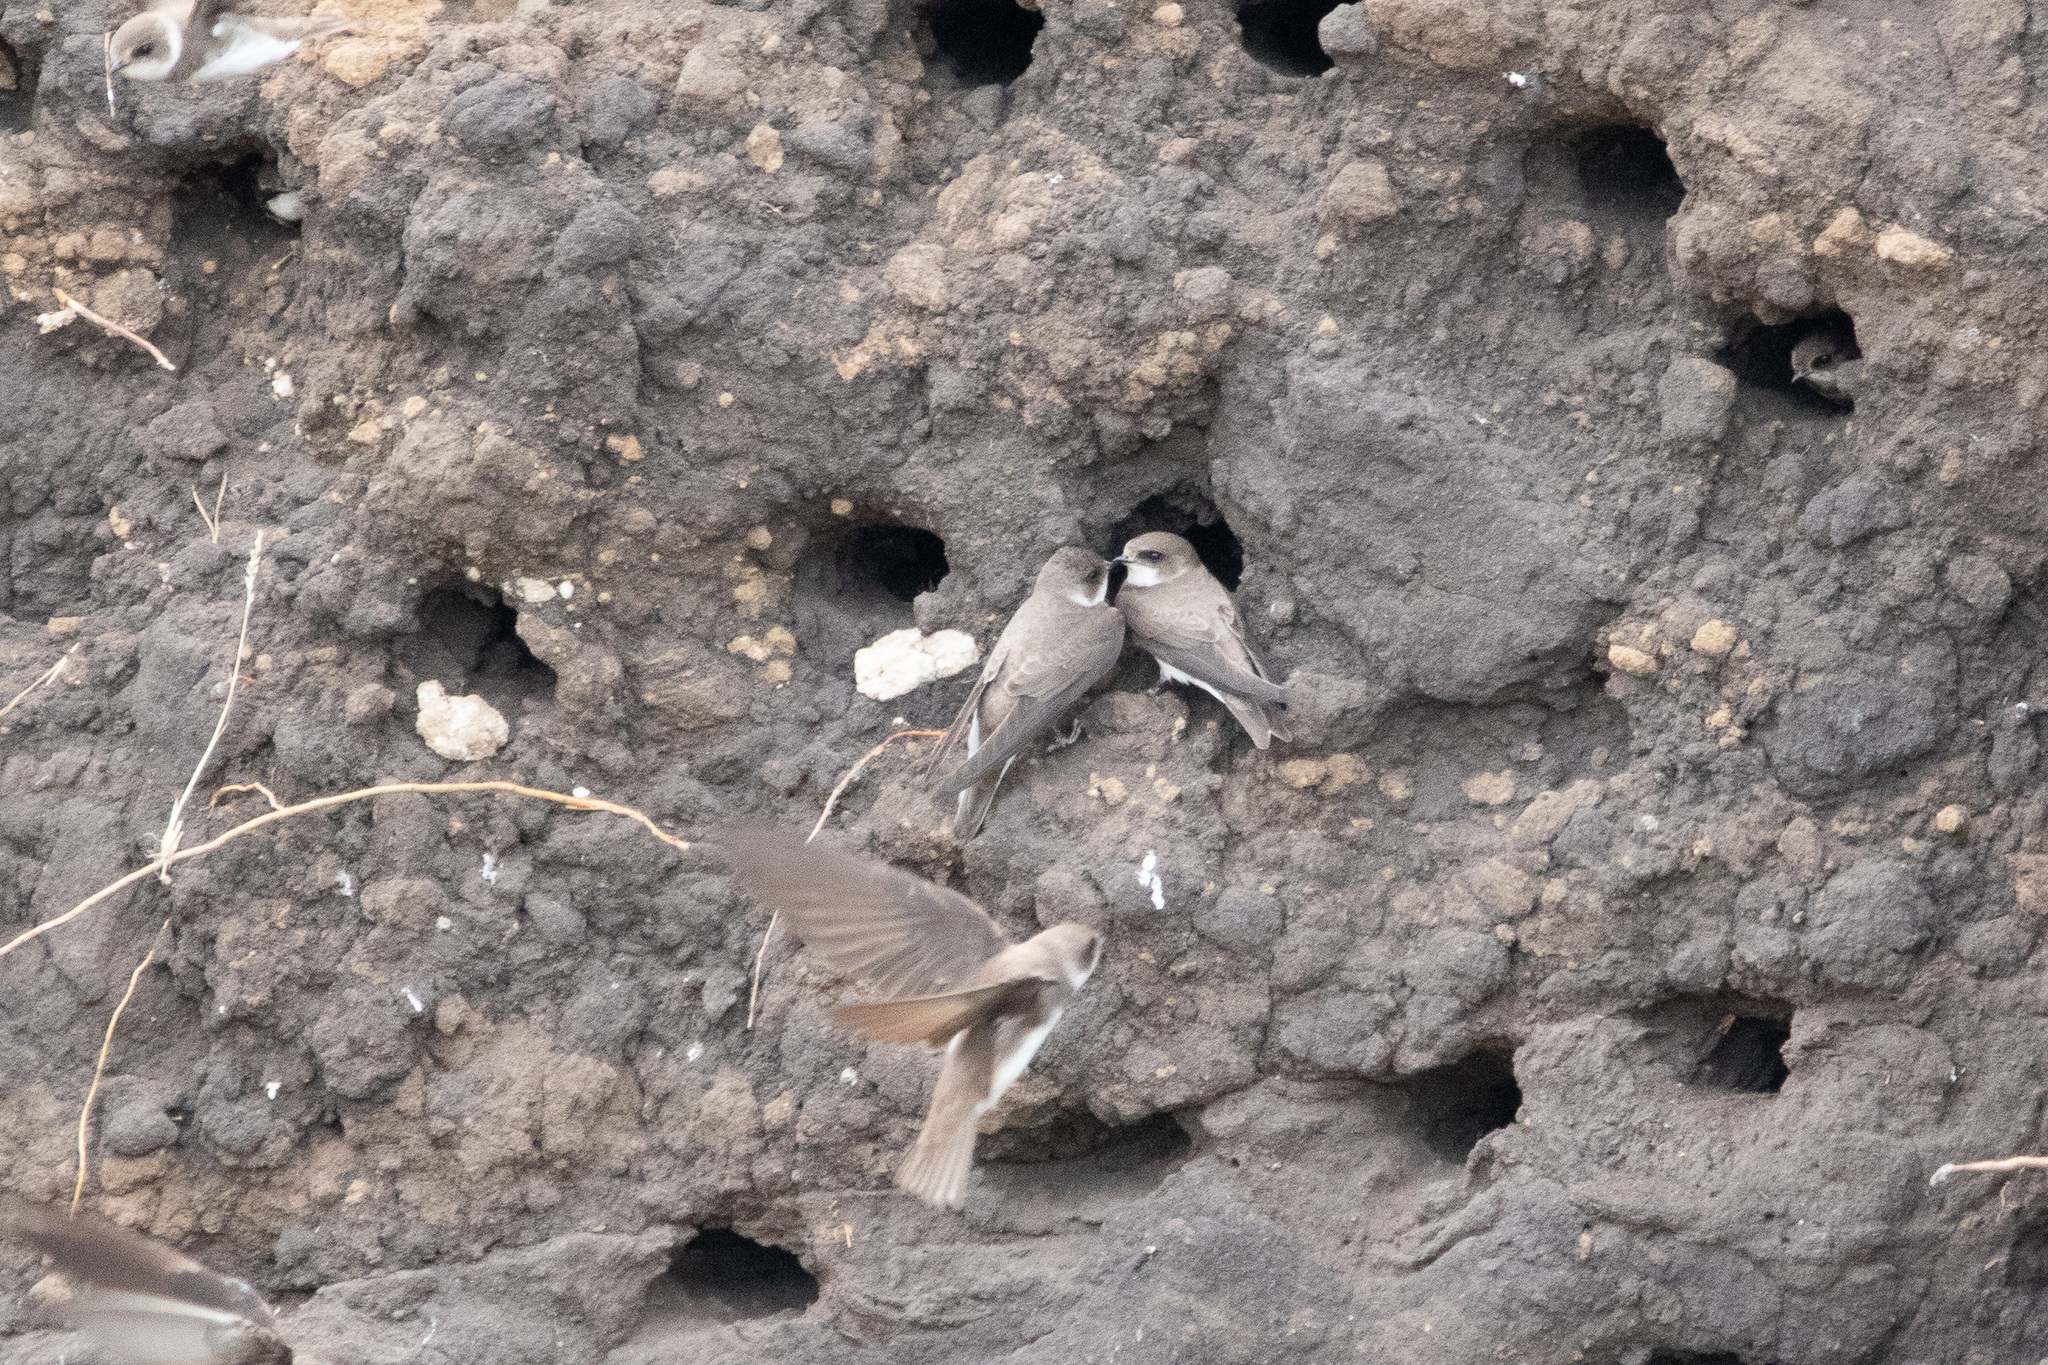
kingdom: Animalia
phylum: Chordata
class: Aves
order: Passeriformes
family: Hirundinidae
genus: Riparia
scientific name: Riparia riparia
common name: Sand martin
